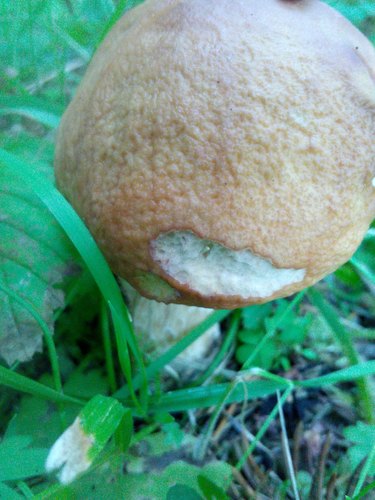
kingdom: Fungi
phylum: Basidiomycota
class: Agaricomycetes
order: Boletales
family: Boletaceae
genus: Boletus
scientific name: Boletus edulis
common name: Cep
